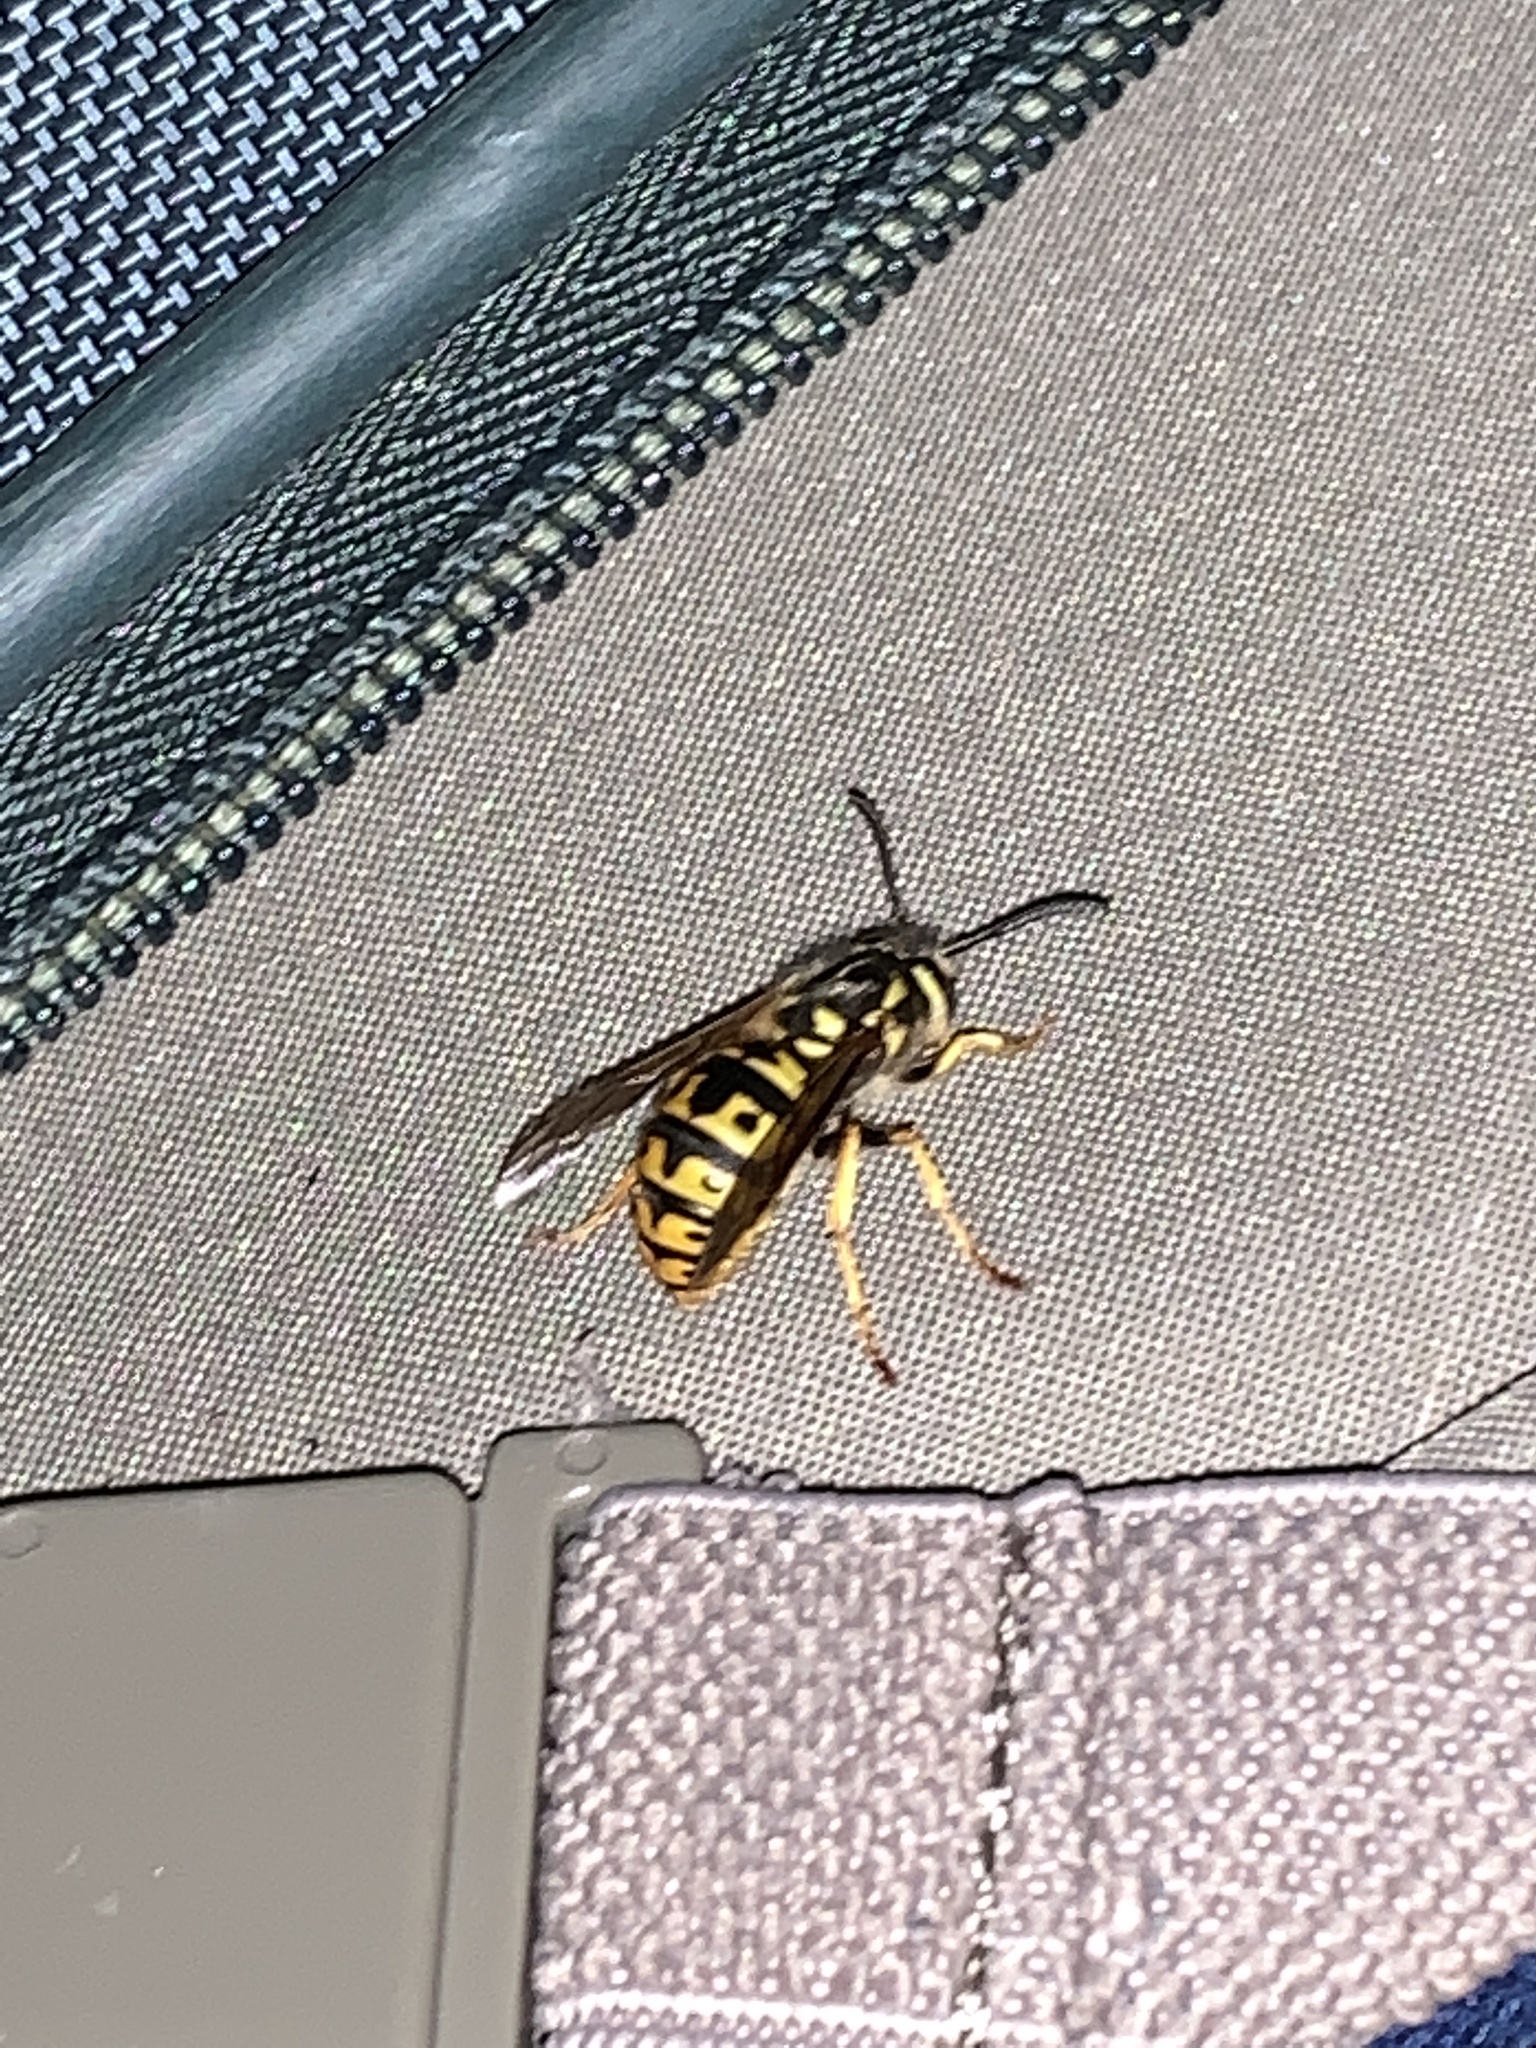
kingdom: Animalia
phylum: Arthropoda
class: Insecta
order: Hymenoptera
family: Vespidae
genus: Vespula
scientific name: Vespula germanica
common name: German wasp
